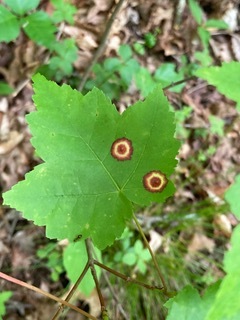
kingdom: Animalia
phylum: Arthropoda
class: Insecta
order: Diptera
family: Cecidomyiidae
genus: Acericecis
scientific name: Acericecis ocellaris
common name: Ocellate gall midge
